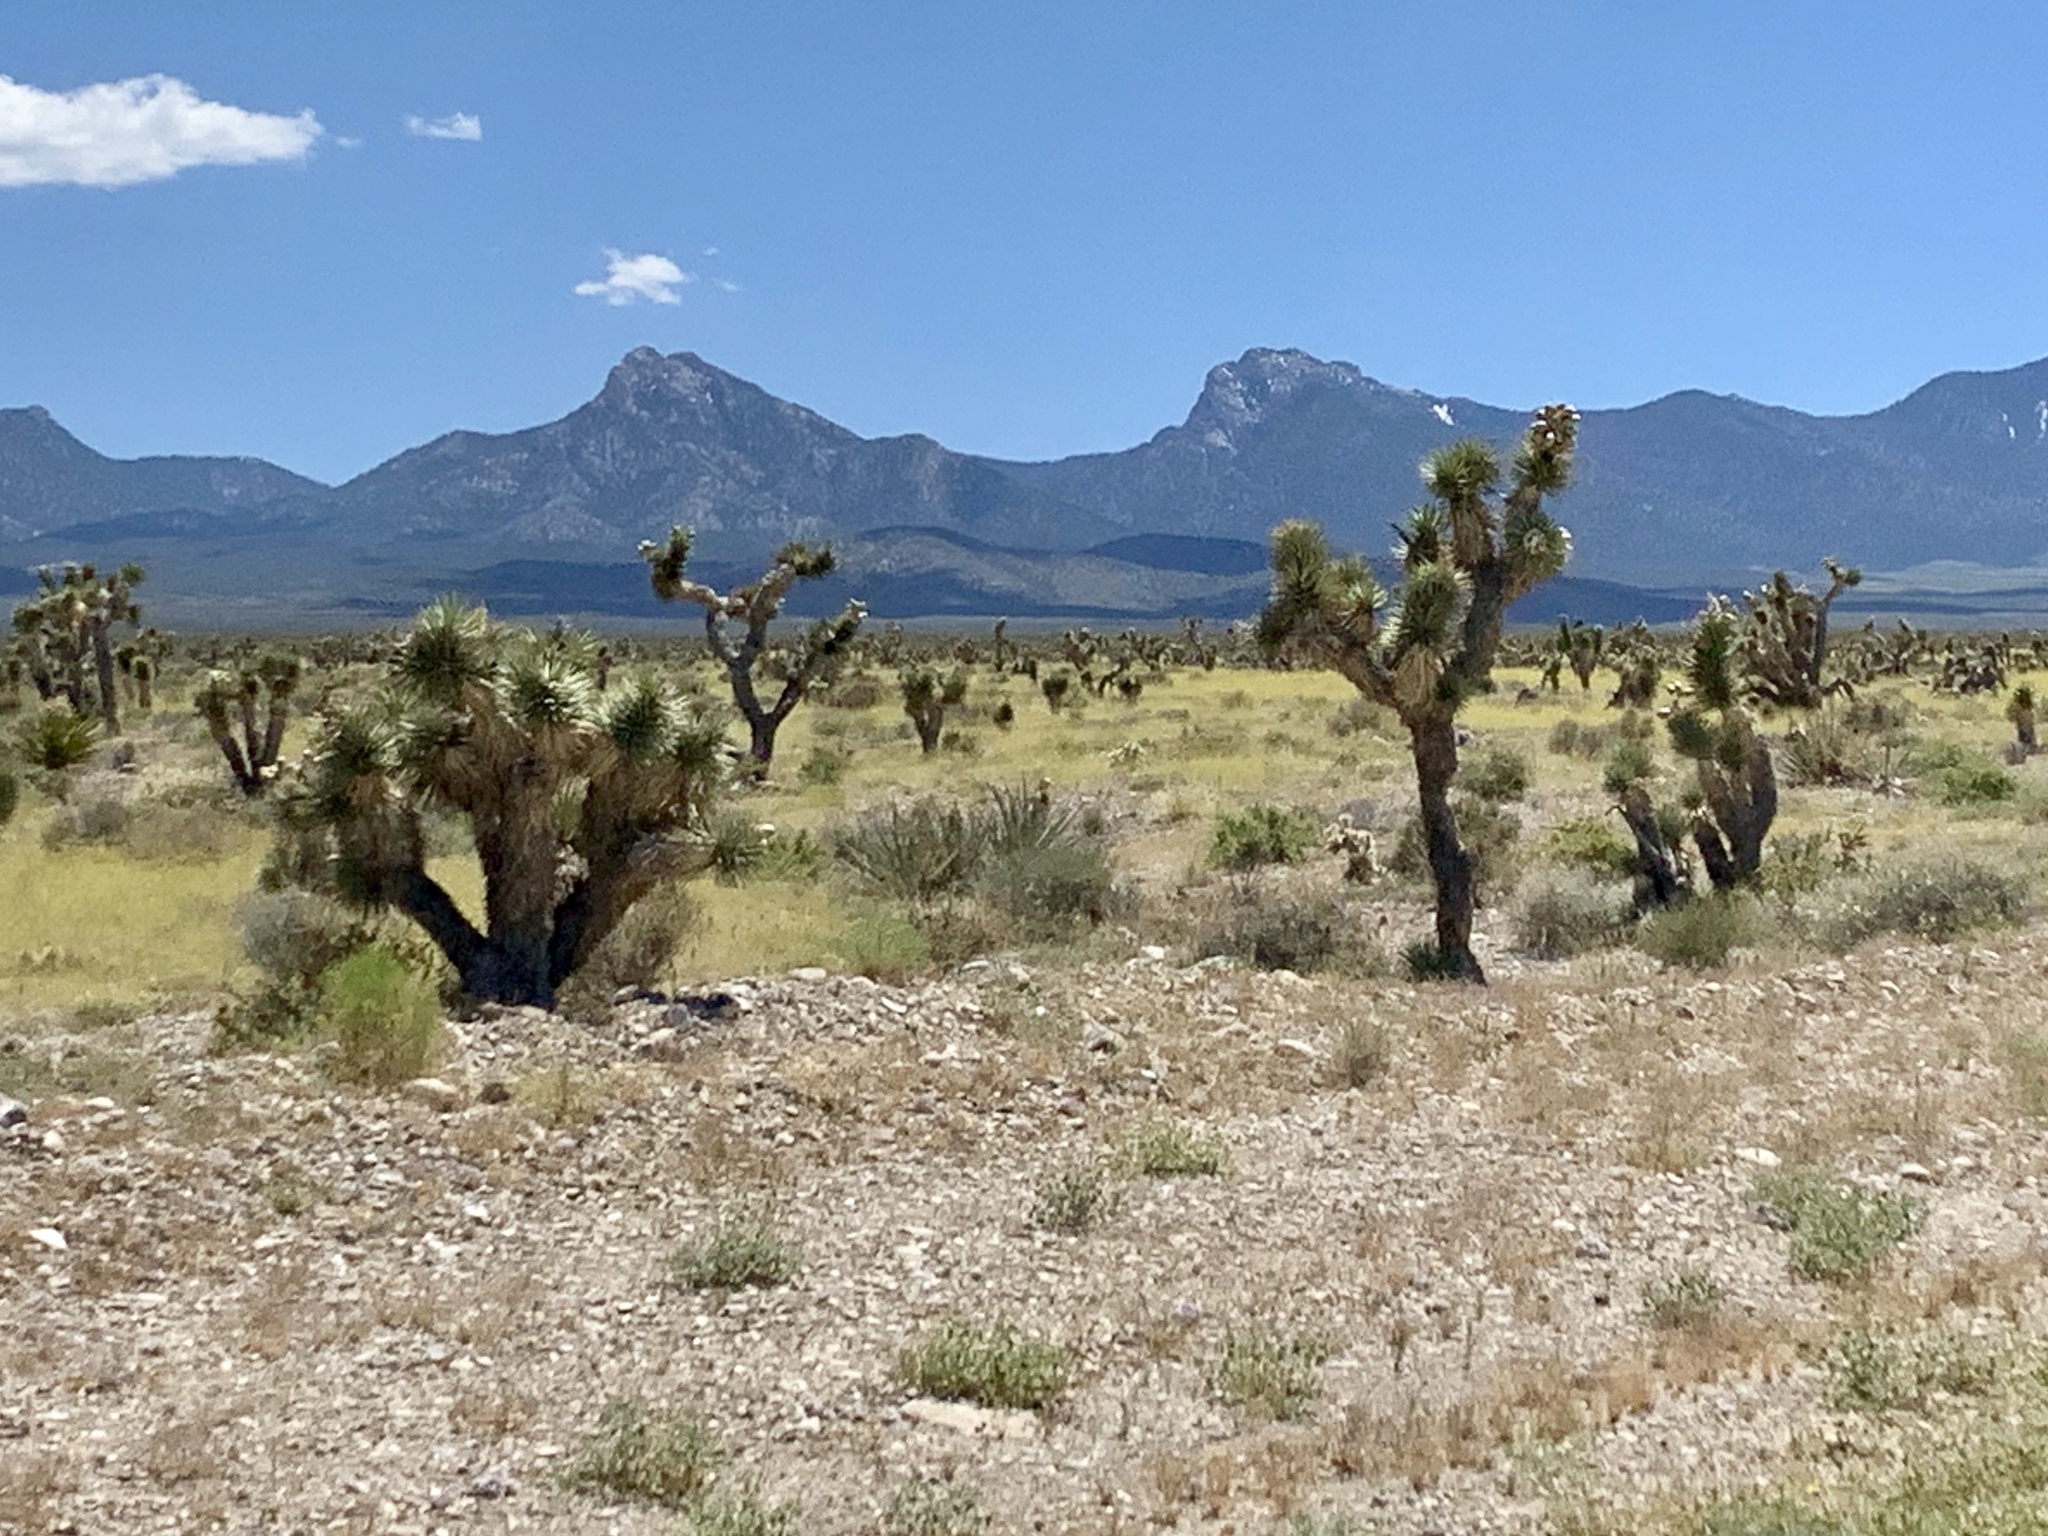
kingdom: Plantae
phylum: Tracheophyta
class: Liliopsida
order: Asparagales
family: Asparagaceae
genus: Yucca
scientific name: Yucca brevifolia
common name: Joshua tree
